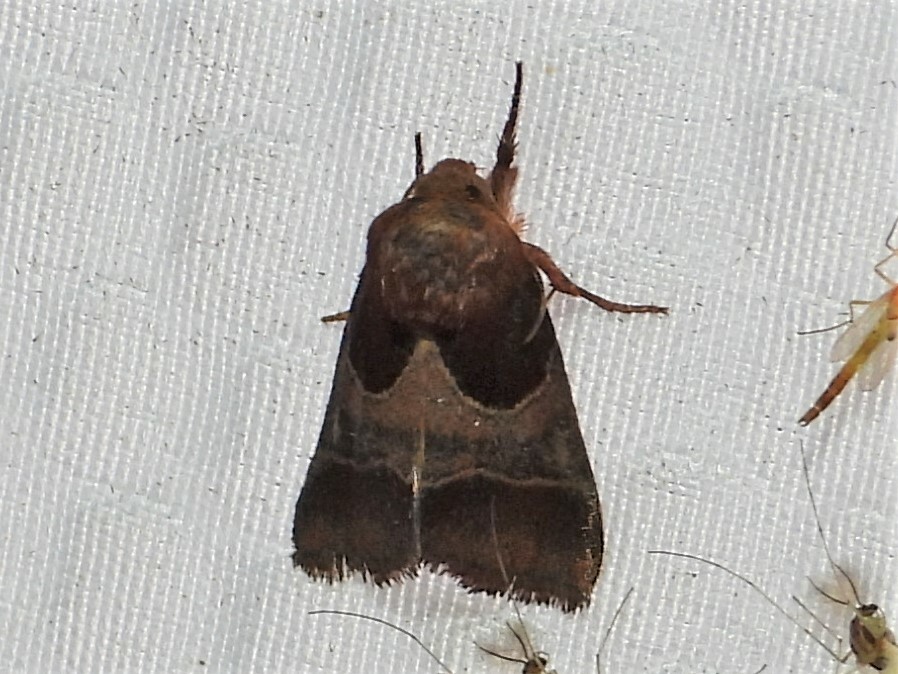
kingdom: Animalia
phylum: Arthropoda
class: Insecta
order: Lepidoptera
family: Noctuidae
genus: Schinia
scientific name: Schinia arcigera
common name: Arcigera flower moth
